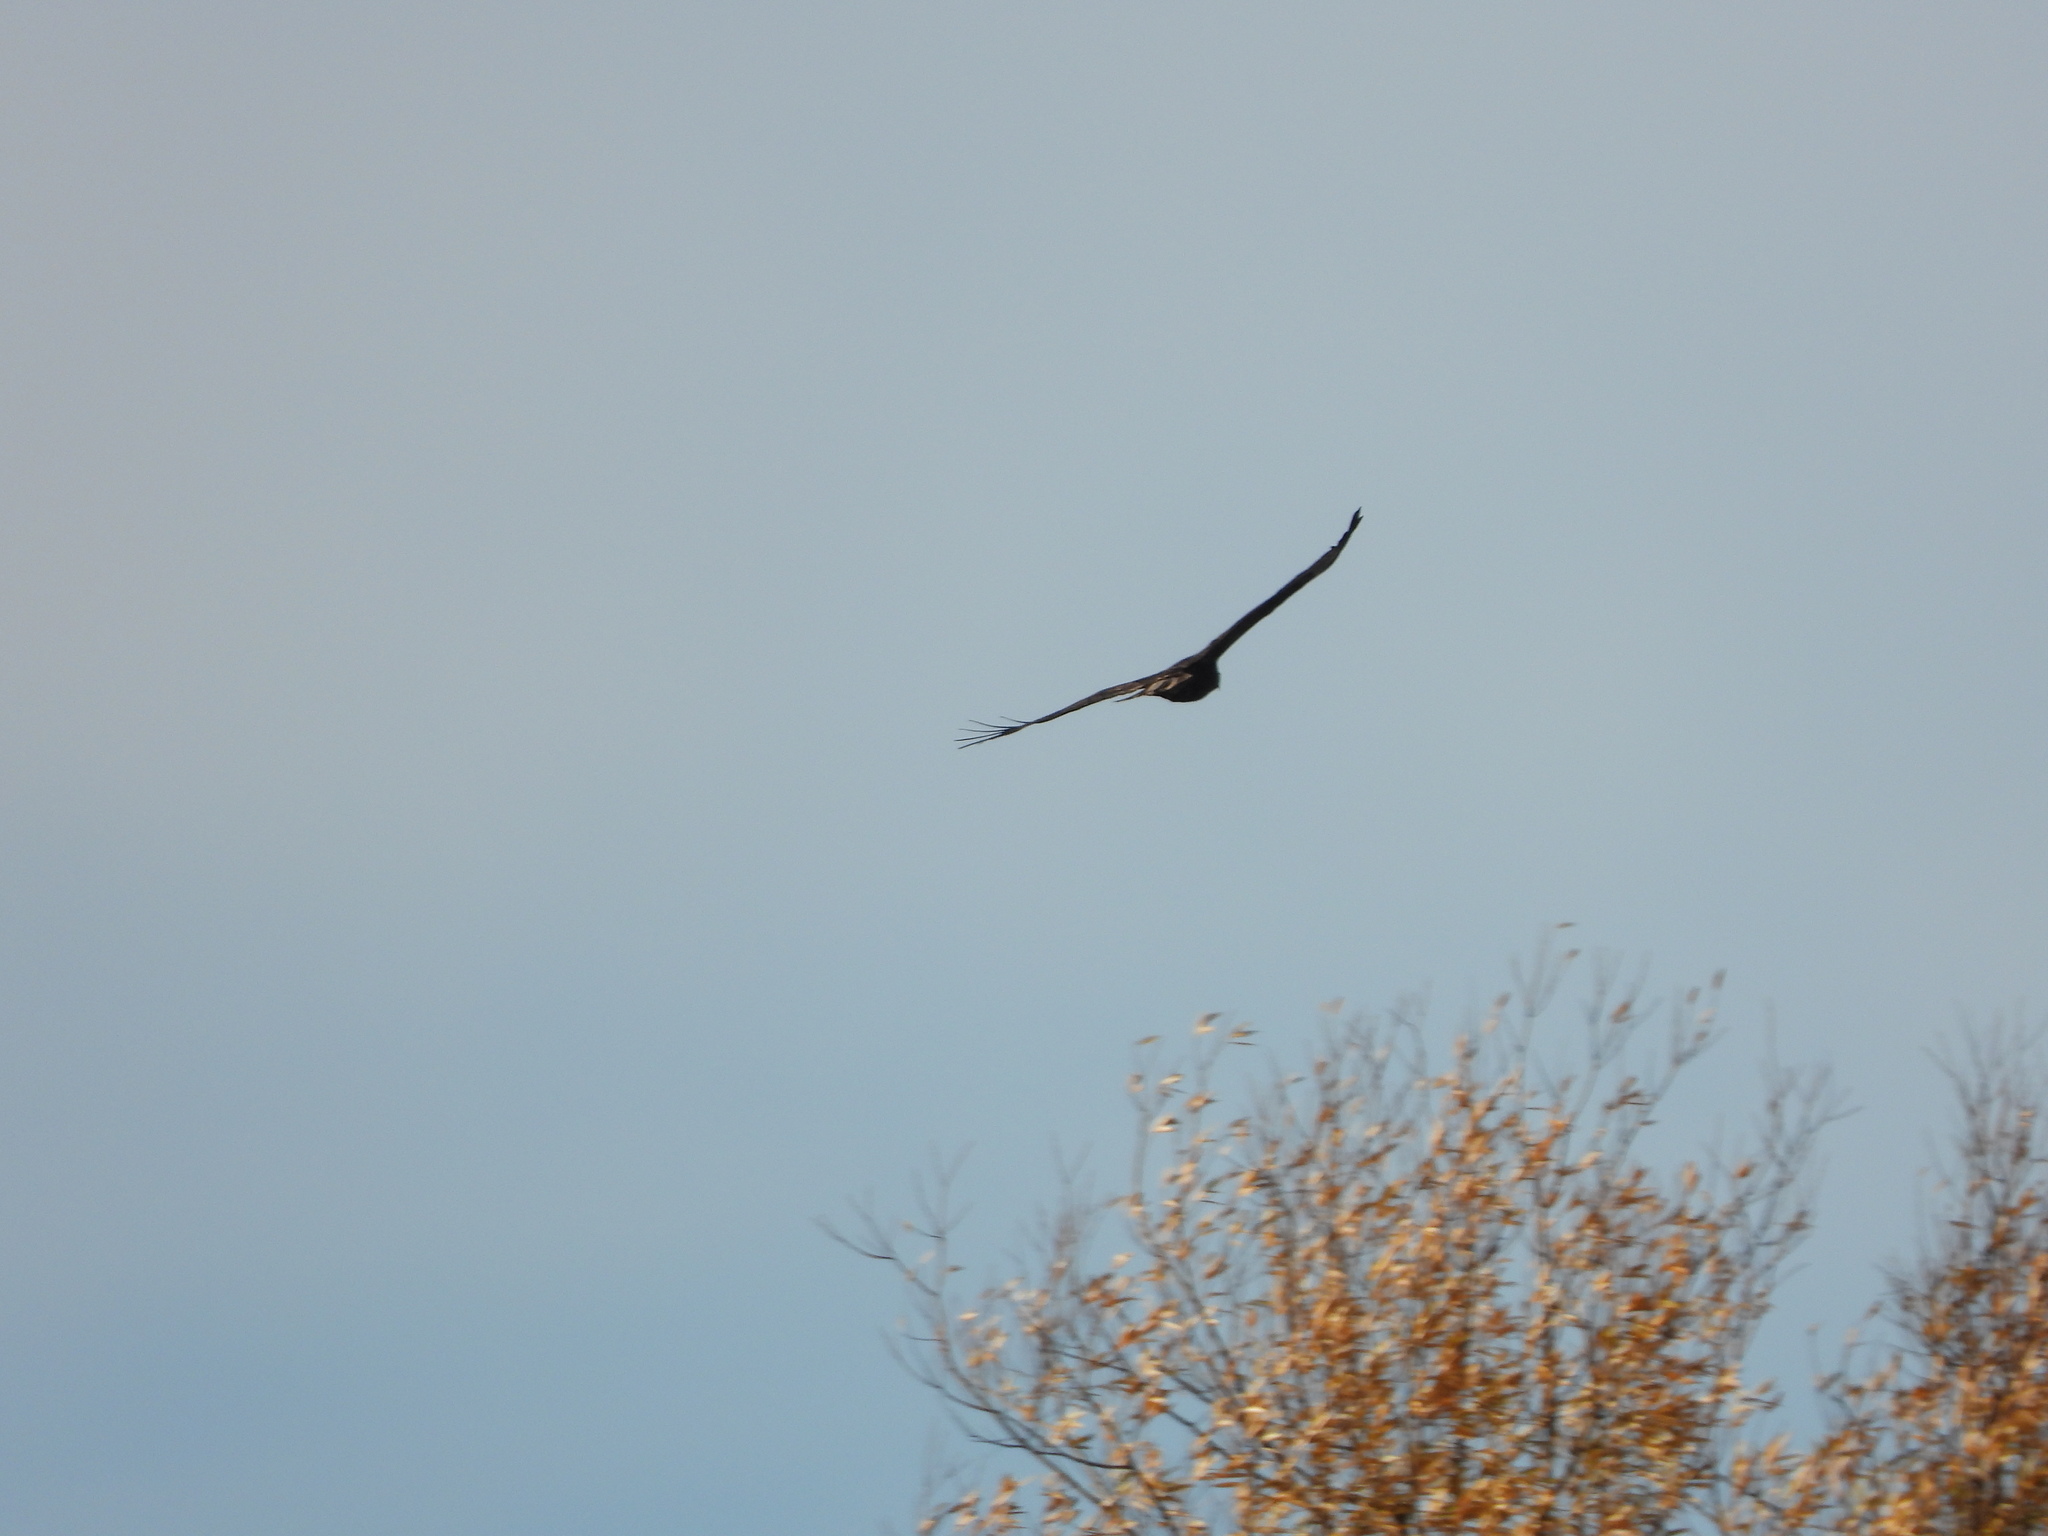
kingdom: Animalia
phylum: Chordata
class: Aves
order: Accipitriformes
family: Accipitridae
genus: Buteo
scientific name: Buteo jamaicensis
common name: Red-tailed hawk
